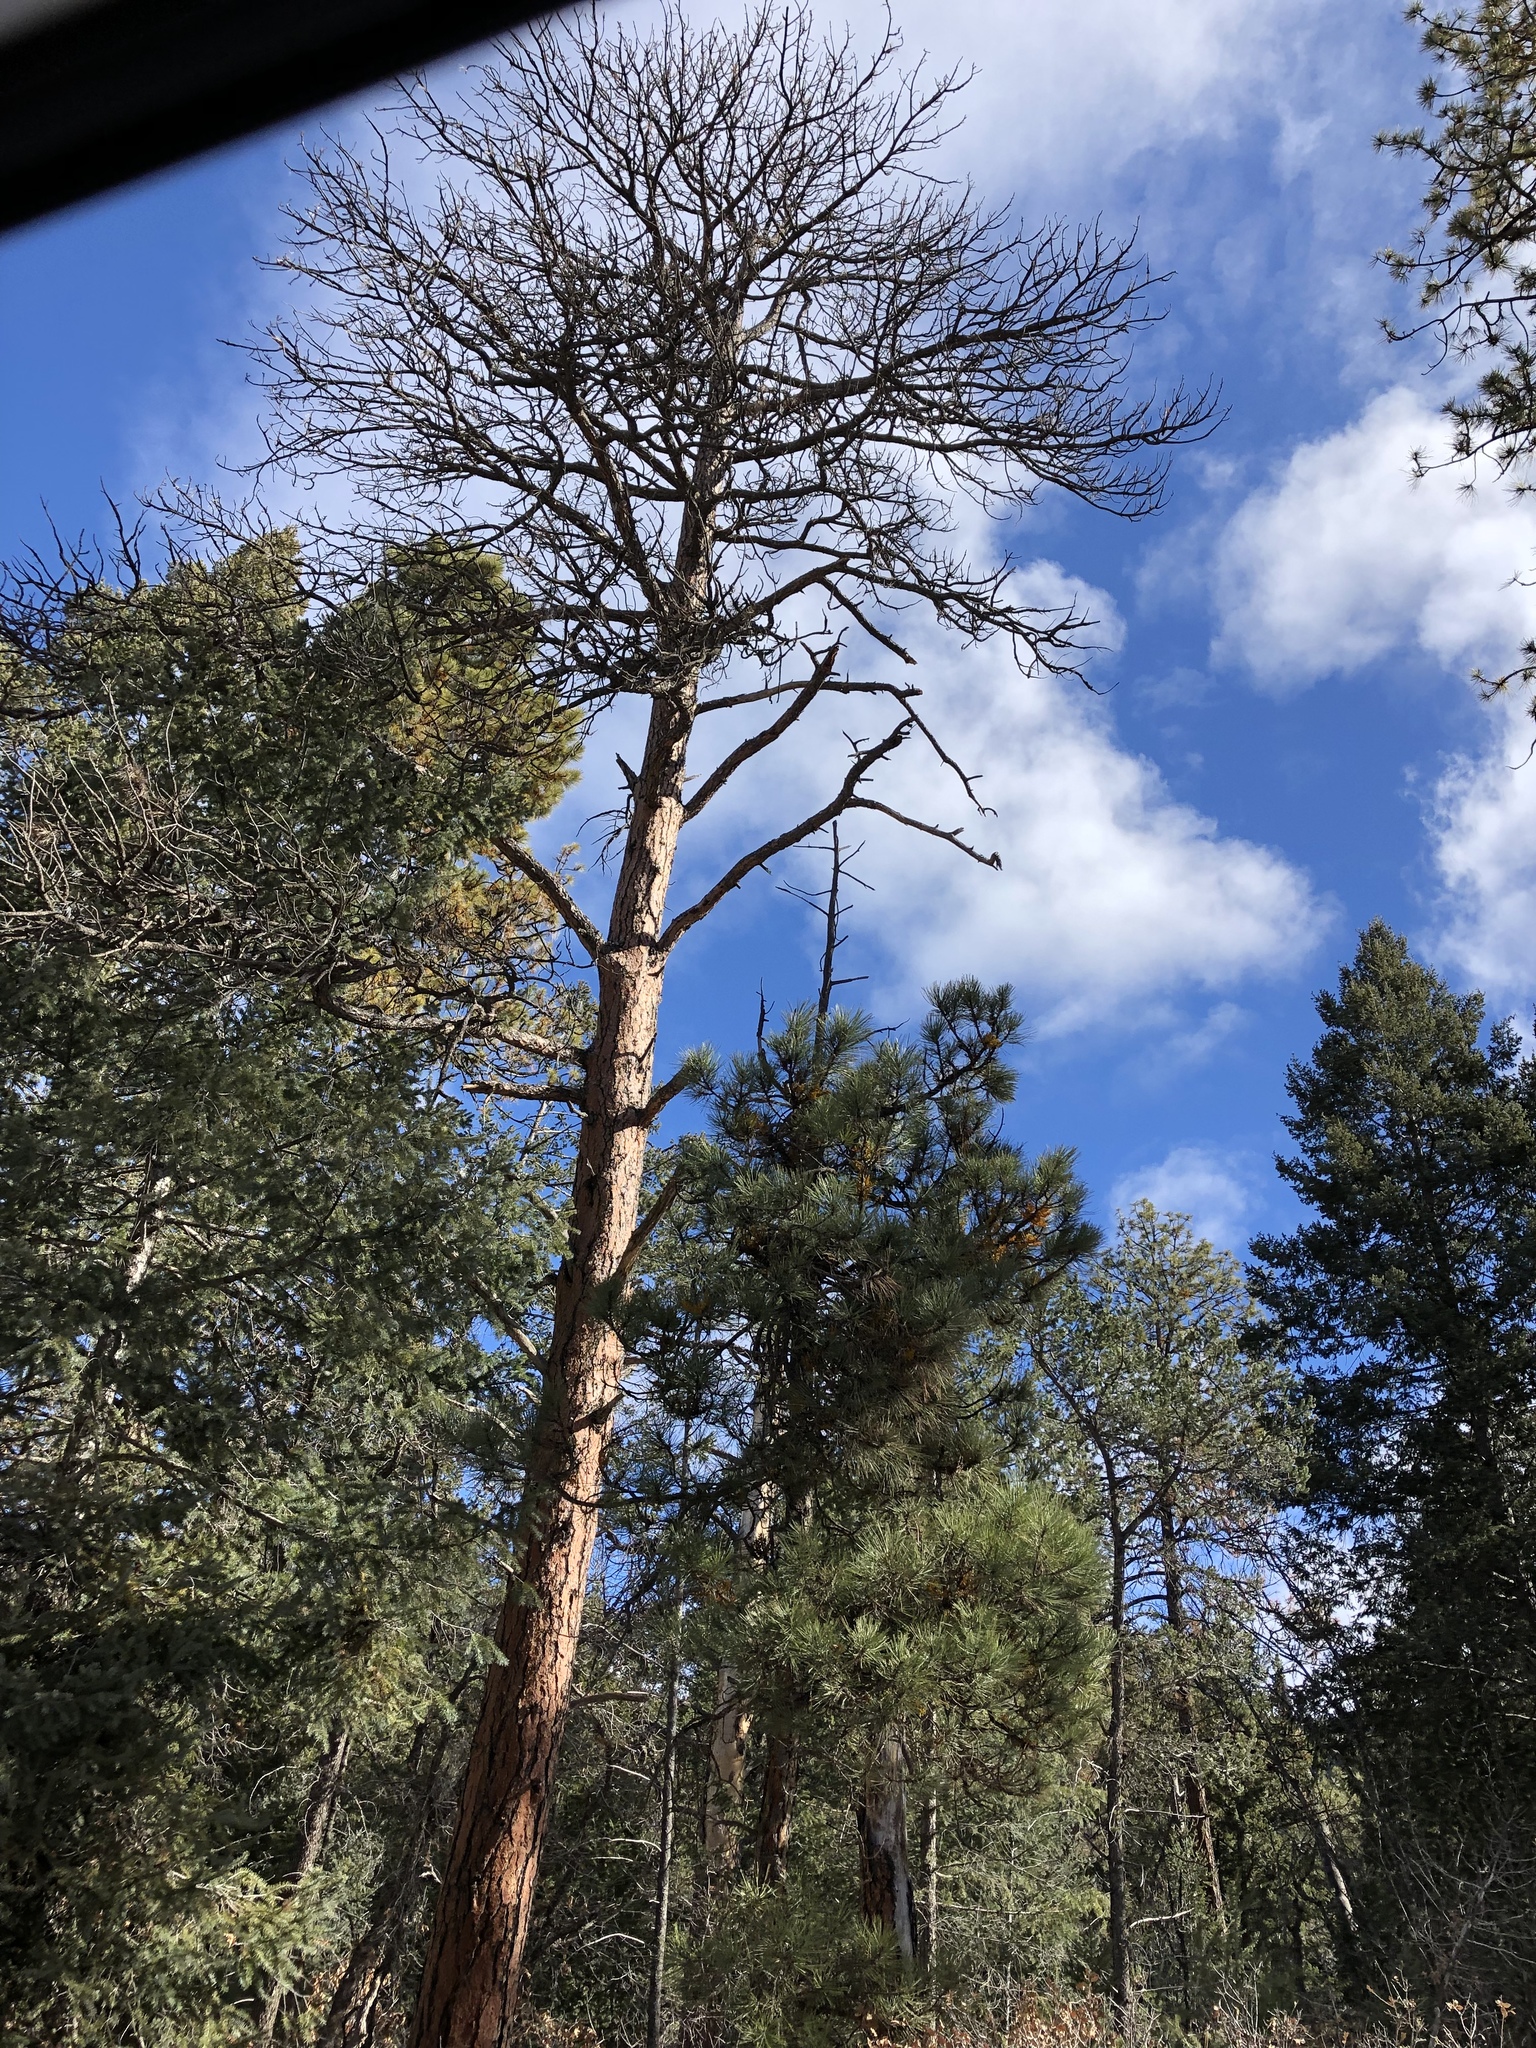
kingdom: Plantae
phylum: Tracheophyta
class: Pinopsida
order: Pinales
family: Pinaceae
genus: Pinus
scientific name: Pinus ponderosa
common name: Western yellow-pine
